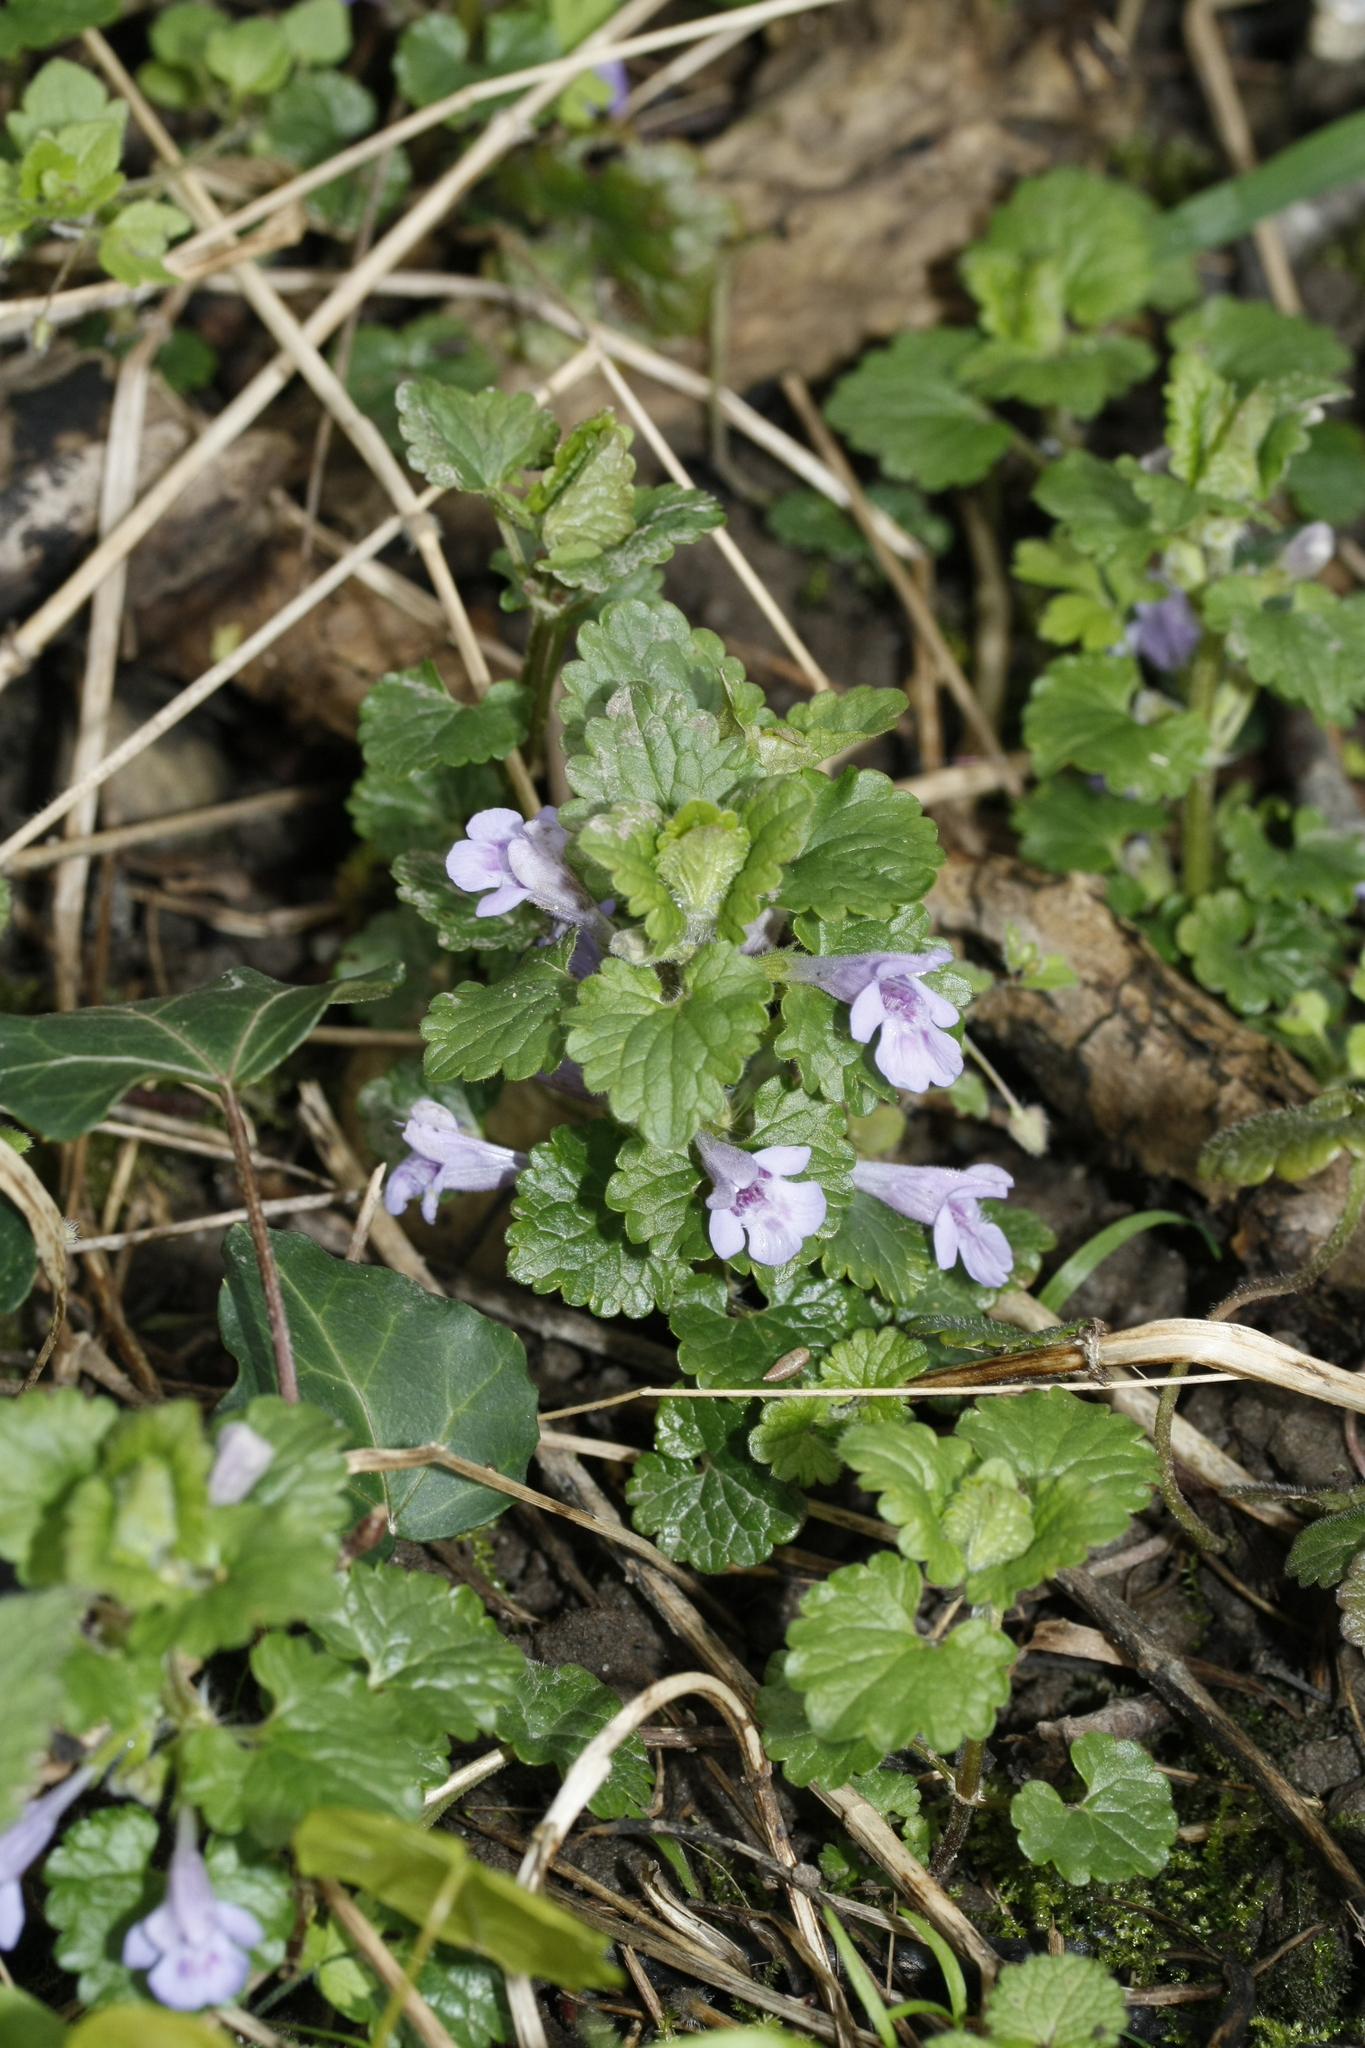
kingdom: Plantae
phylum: Tracheophyta
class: Magnoliopsida
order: Lamiales
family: Lamiaceae
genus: Glechoma
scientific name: Glechoma hederacea
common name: Ground ivy
